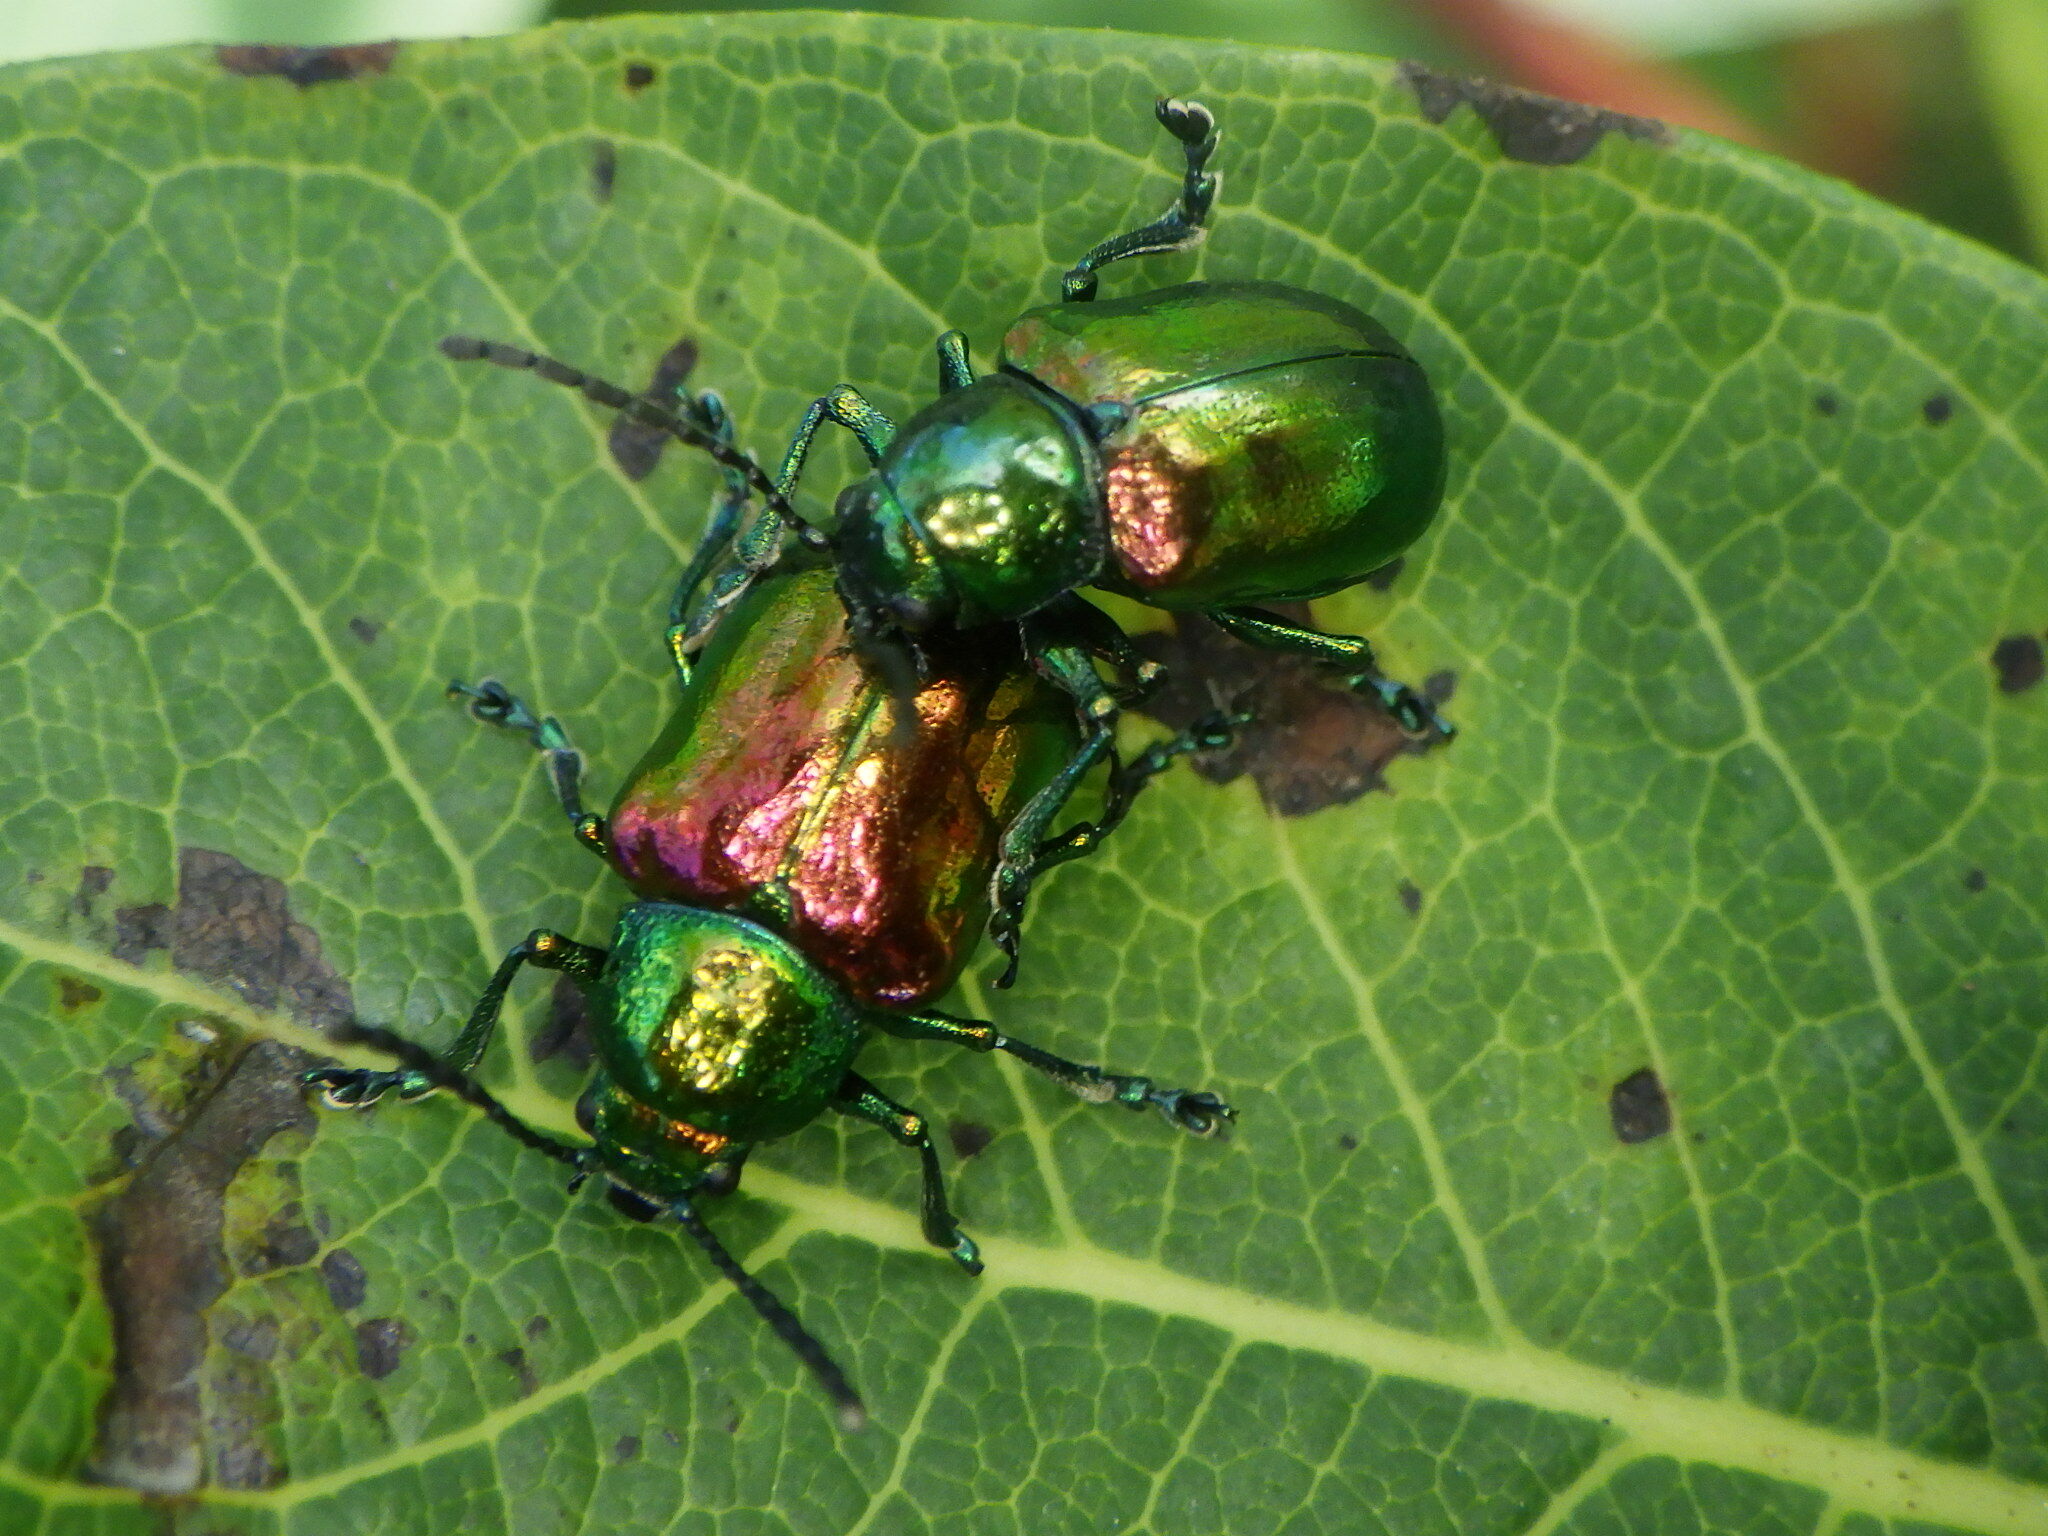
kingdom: Animalia
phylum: Arthropoda
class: Insecta
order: Coleoptera
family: Chrysomelidae
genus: Chrysochus
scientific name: Chrysochus auratus
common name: Dogbane leaf beetle
